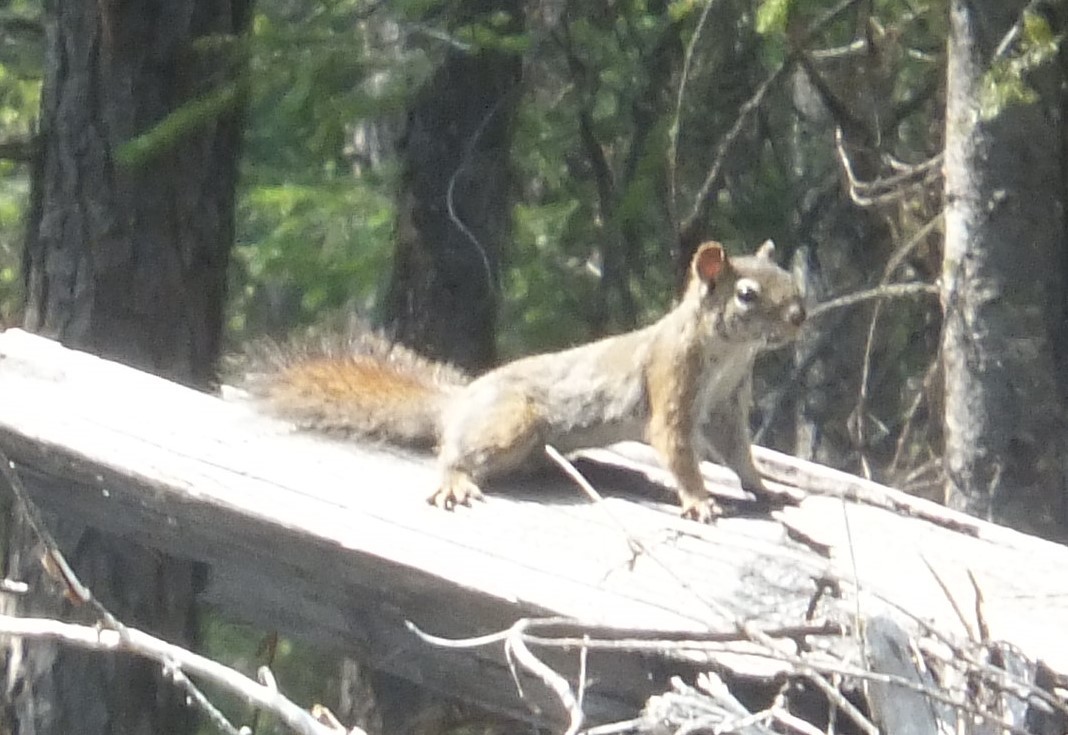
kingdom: Animalia
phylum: Chordata
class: Mammalia
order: Rodentia
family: Sciuridae
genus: Tamiasciurus
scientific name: Tamiasciurus hudsonicus
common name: Red squirrel
